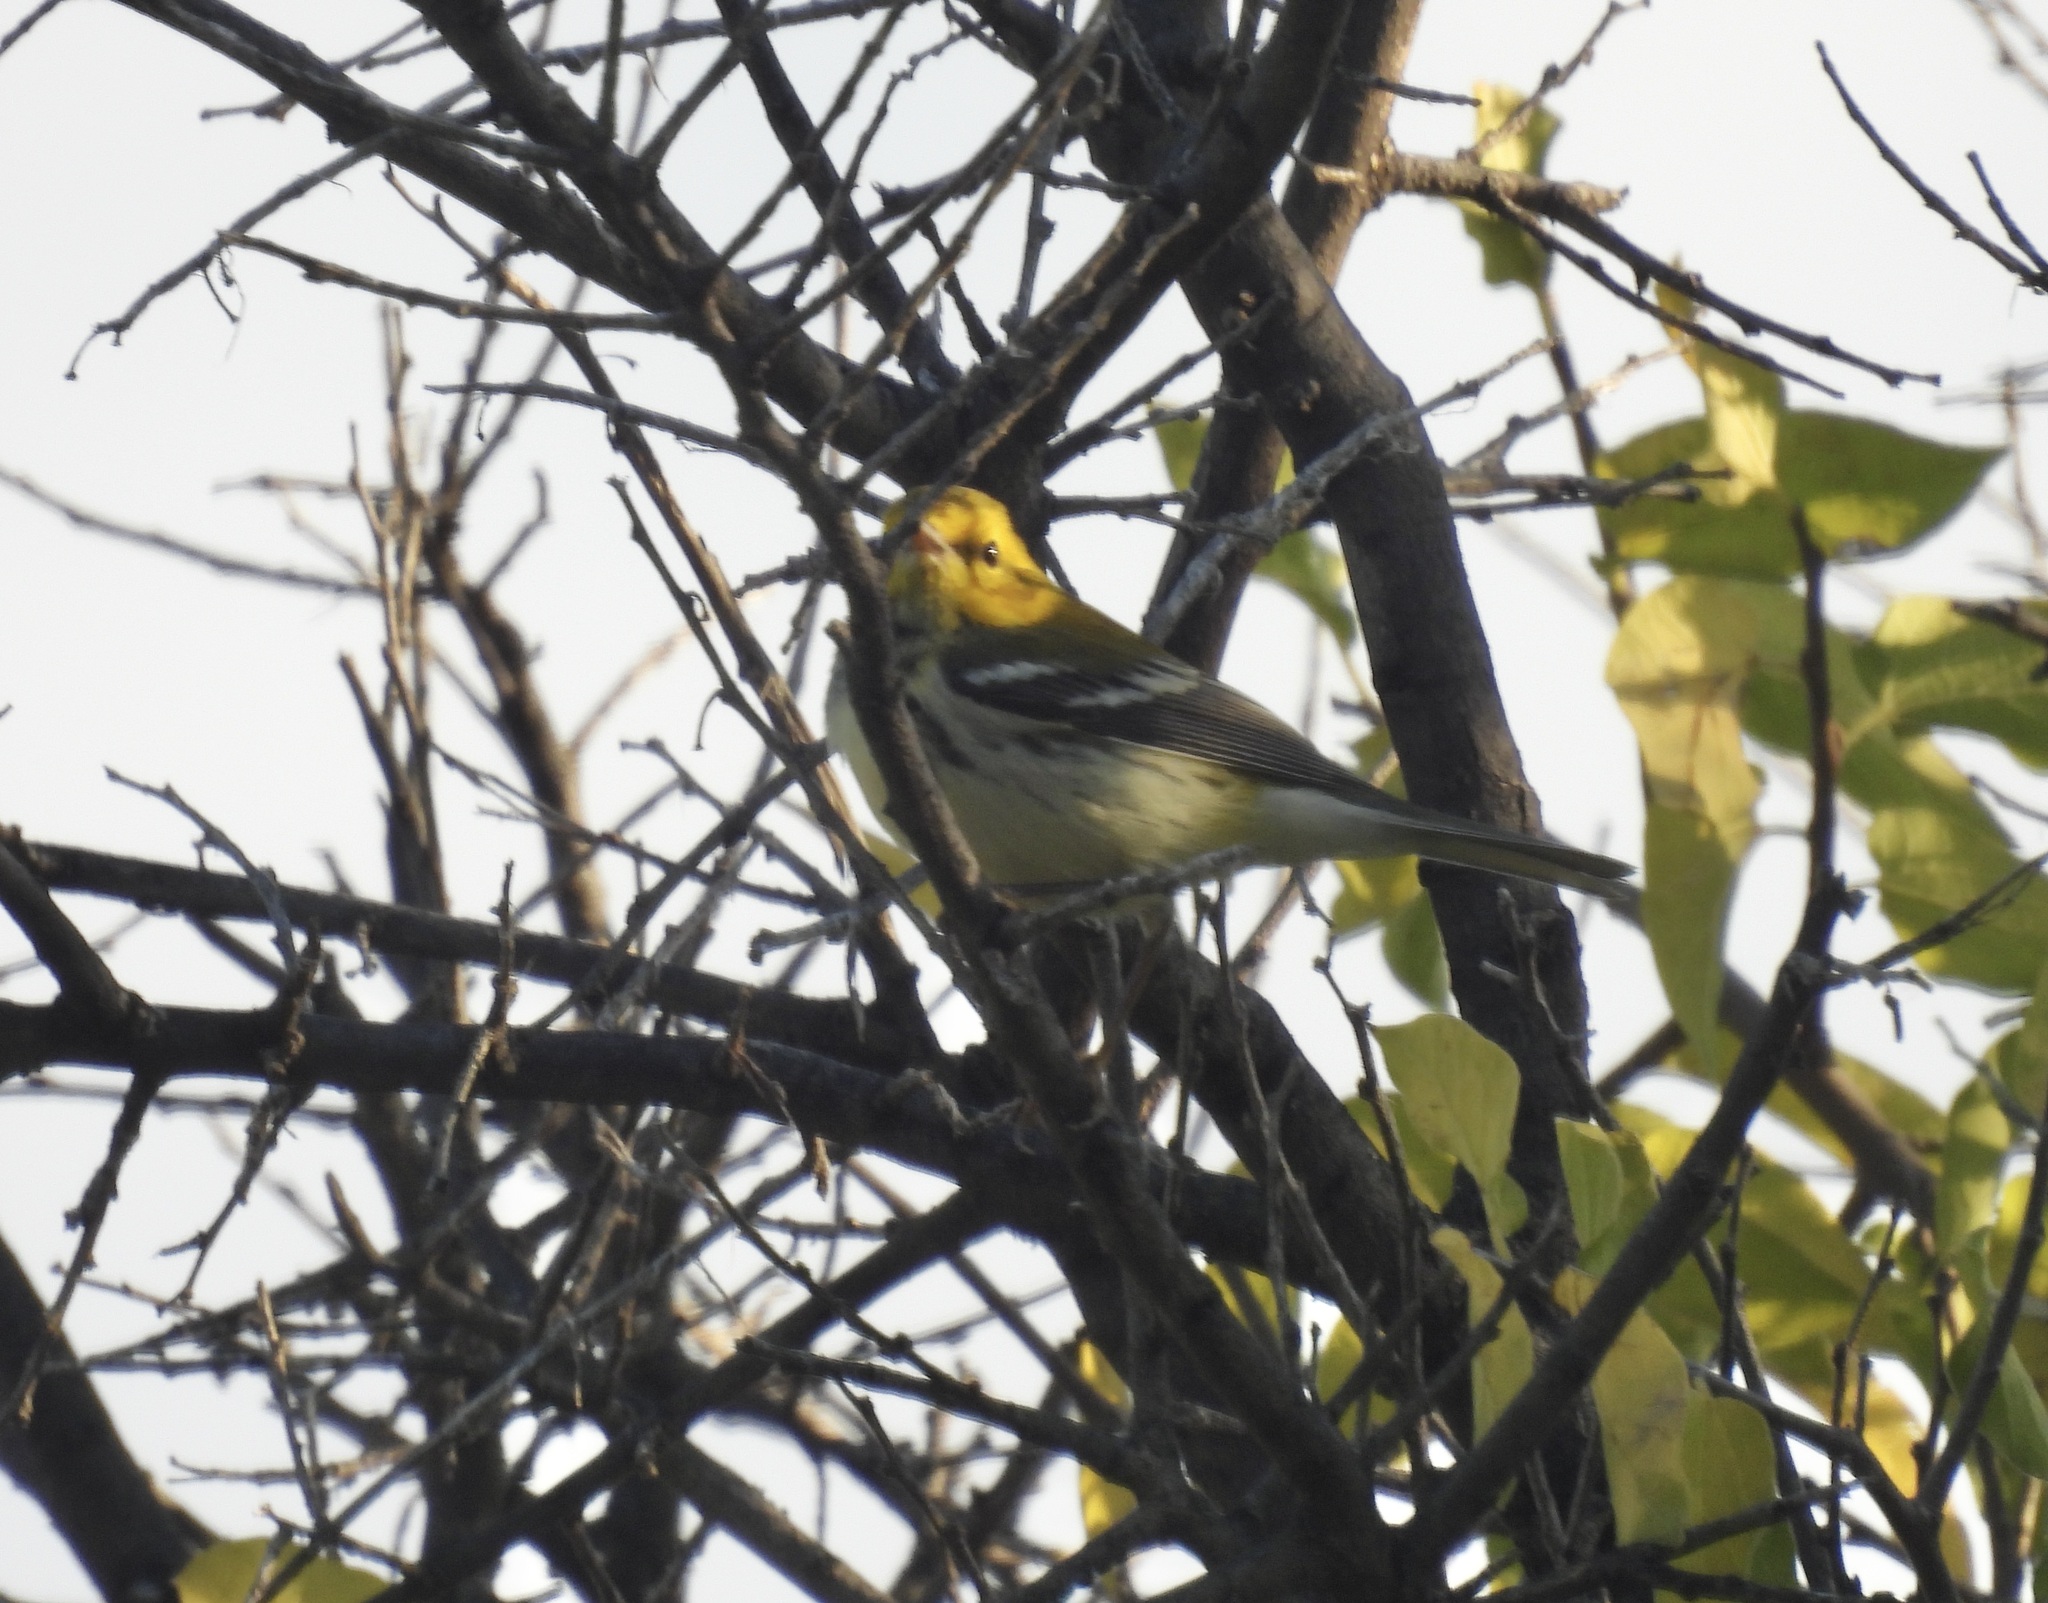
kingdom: Animalia
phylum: Chordata
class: Aves
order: Passeriformes
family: Parulidae
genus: Setophaga
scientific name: Setophaga virens
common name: Black-throated green warbler
